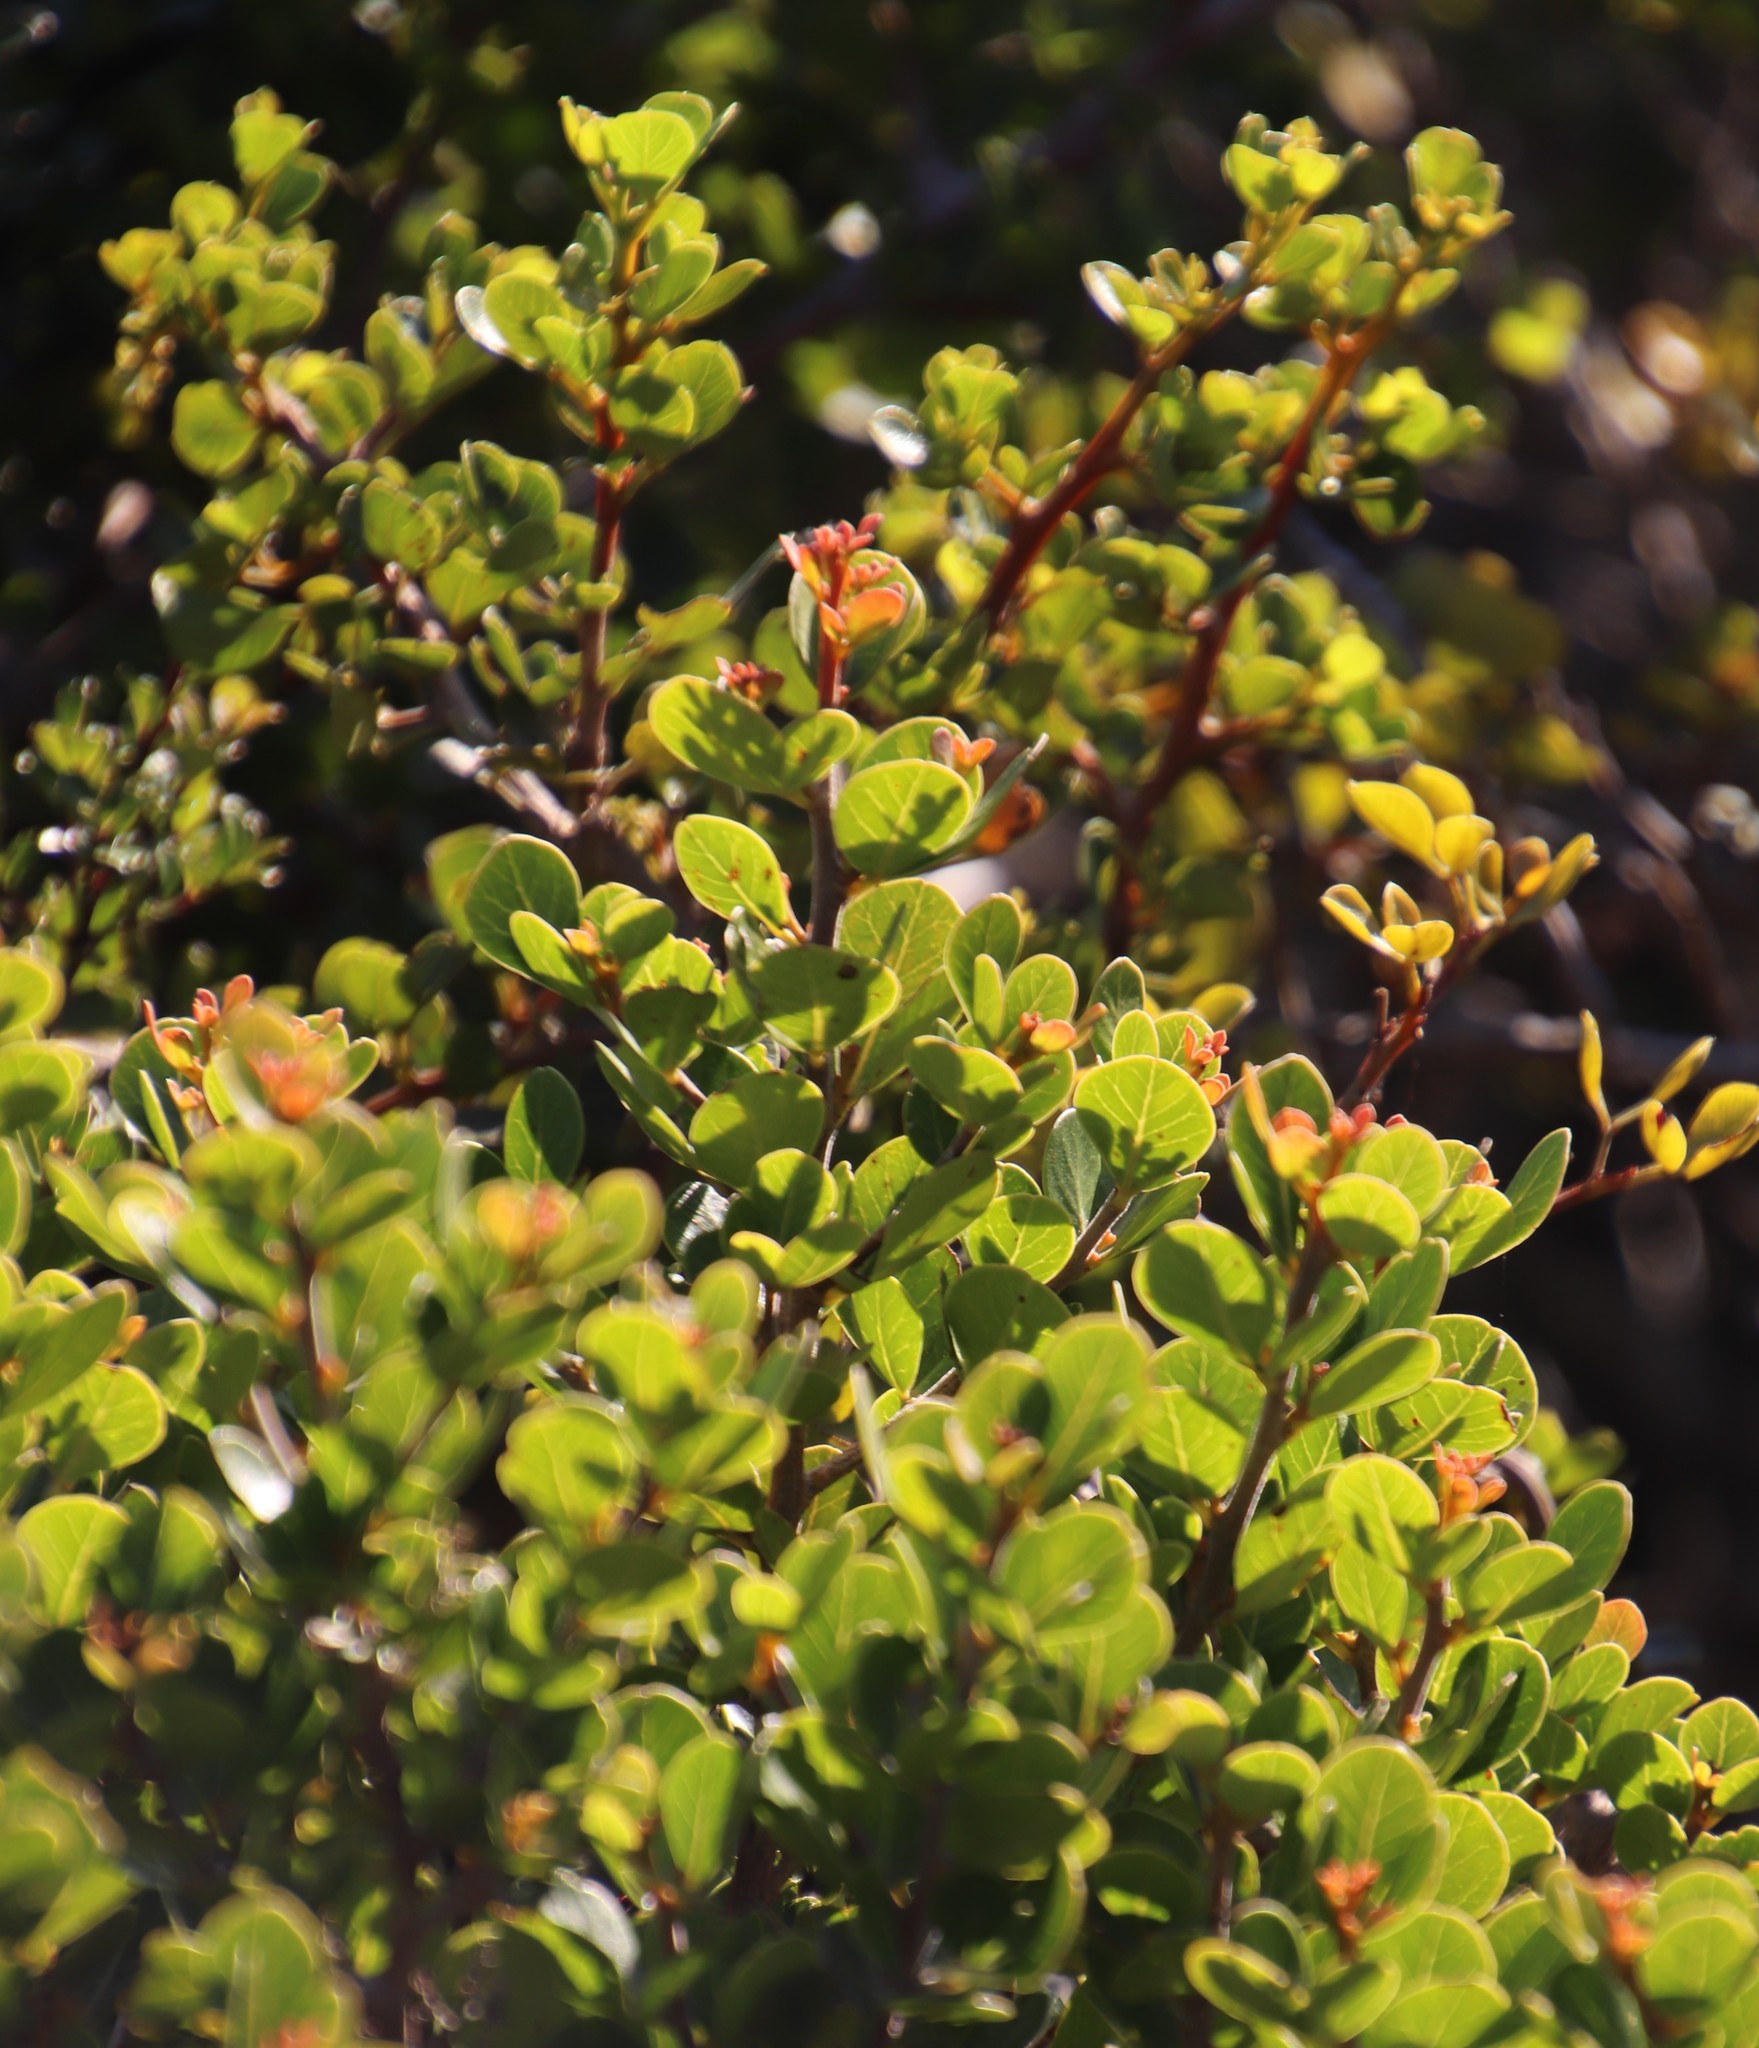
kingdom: Plantae
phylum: Tracheophyta
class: Magnoliopsida
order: Sapindales
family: Anacardiaceae
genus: Searsia
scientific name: Searsia lucida
